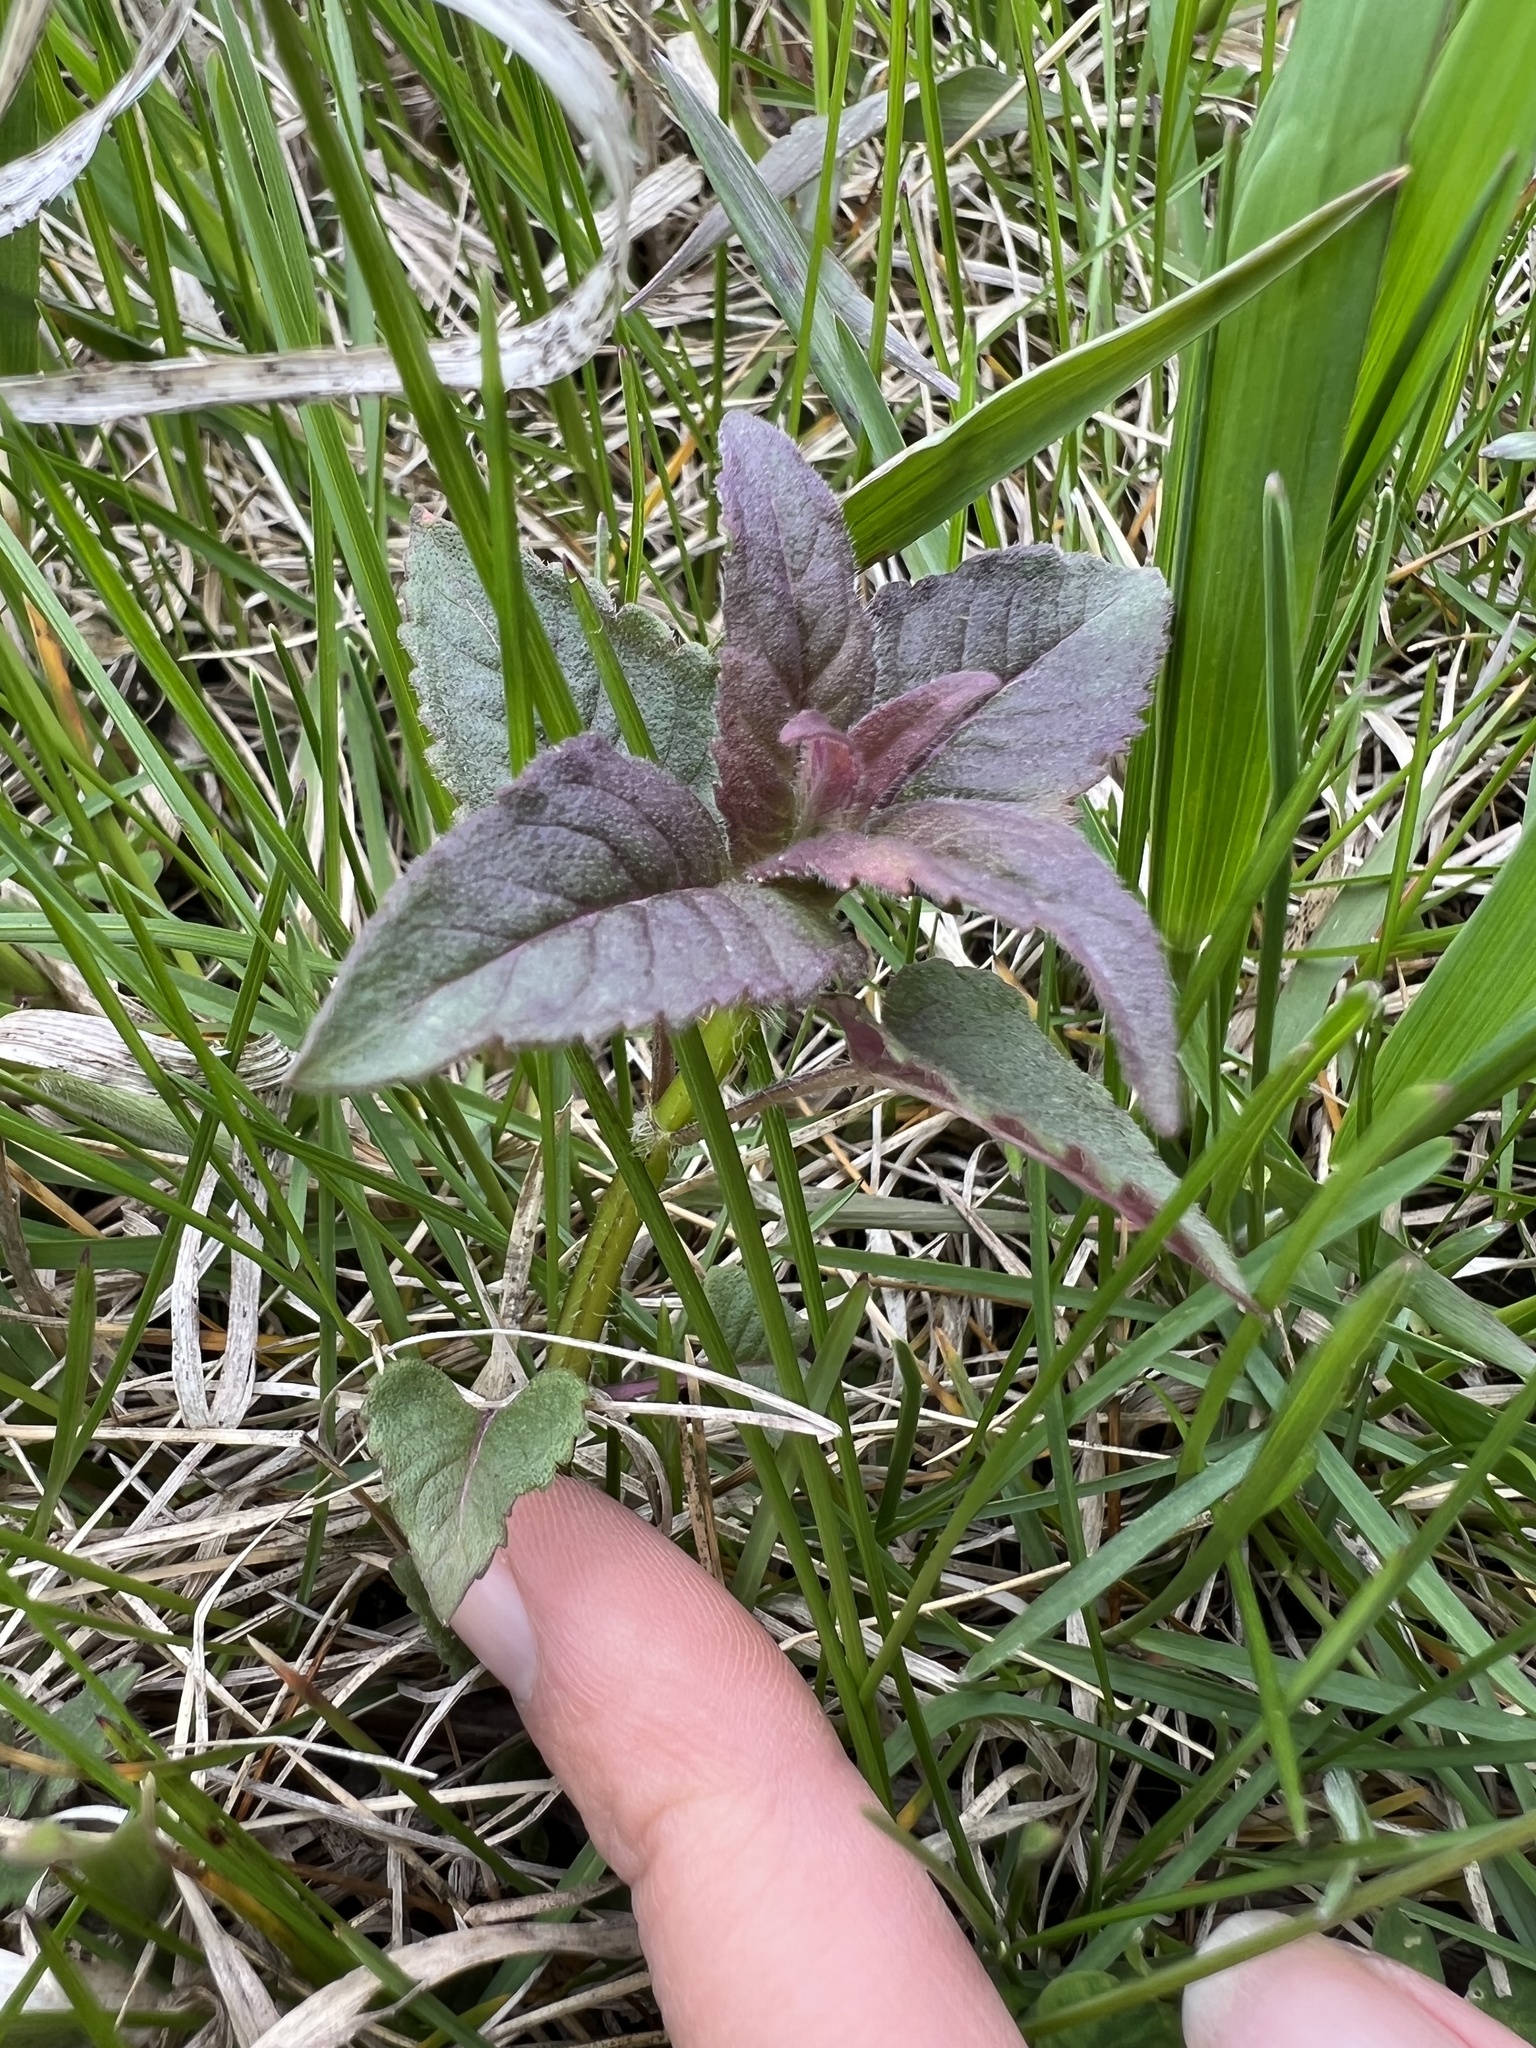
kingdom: Plantae
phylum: Tracheophyta
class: Magnoliopsida
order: Lamiales
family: Lamiaceae
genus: Monarda
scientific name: Monarda fistulosa
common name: Purple beebalm
